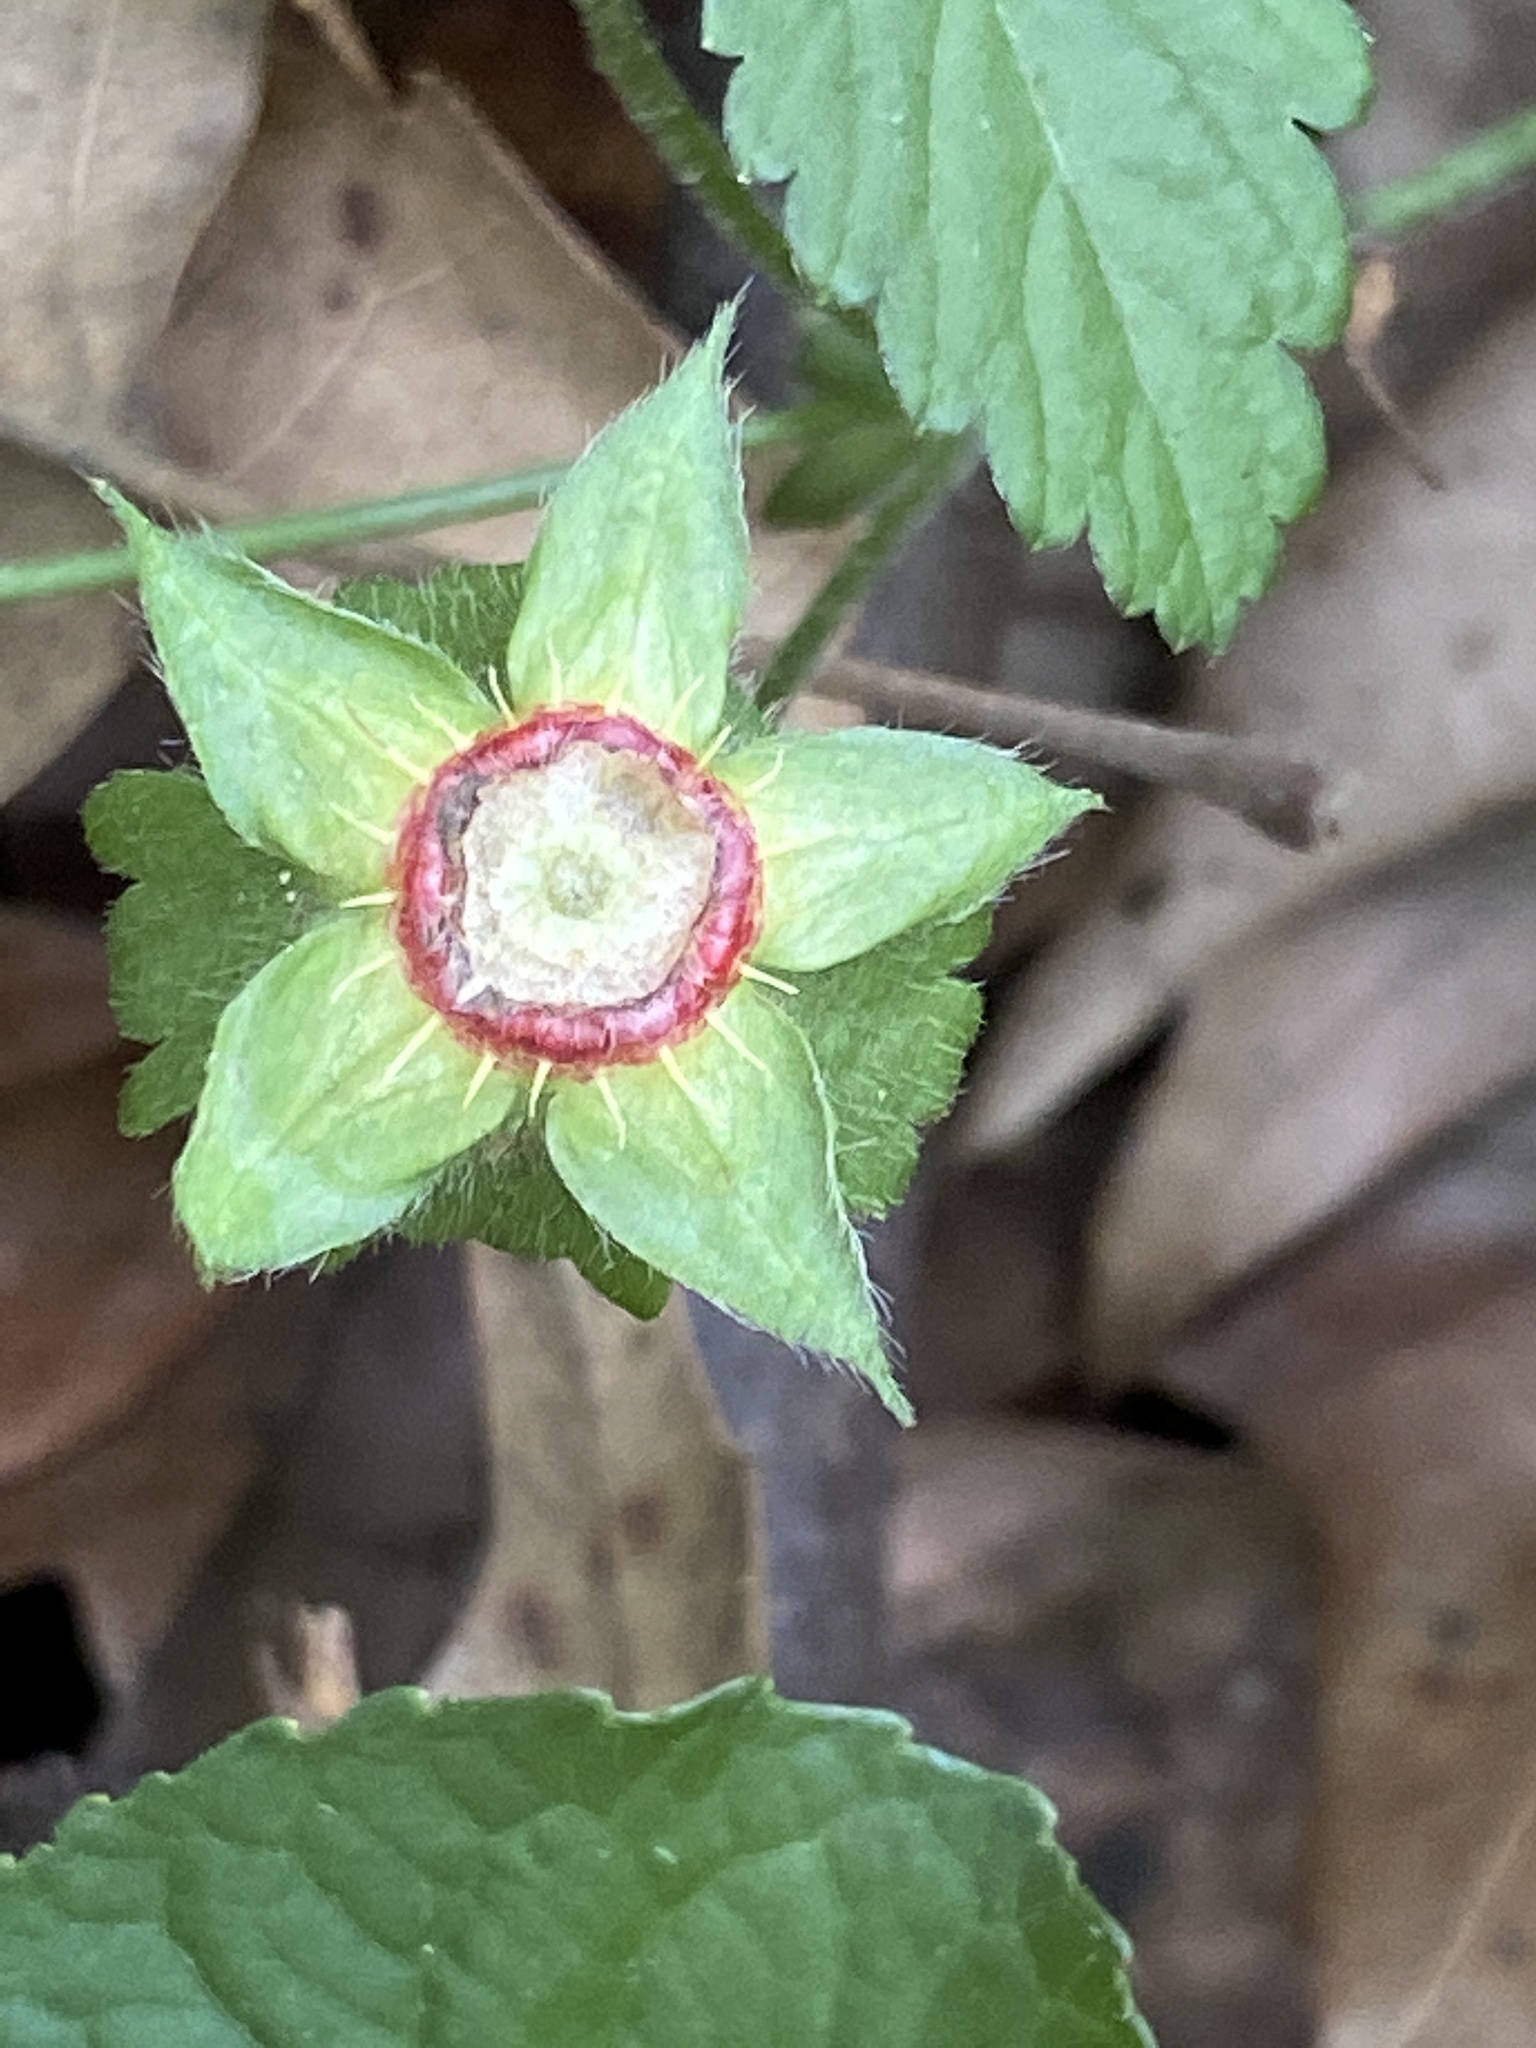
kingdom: Plantae
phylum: Tracheophyta
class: Magnoliopsida
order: Rosales
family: Rosaceae
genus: Potentilla
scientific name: Potentilla indica
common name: Yellow-flowered strawberry
